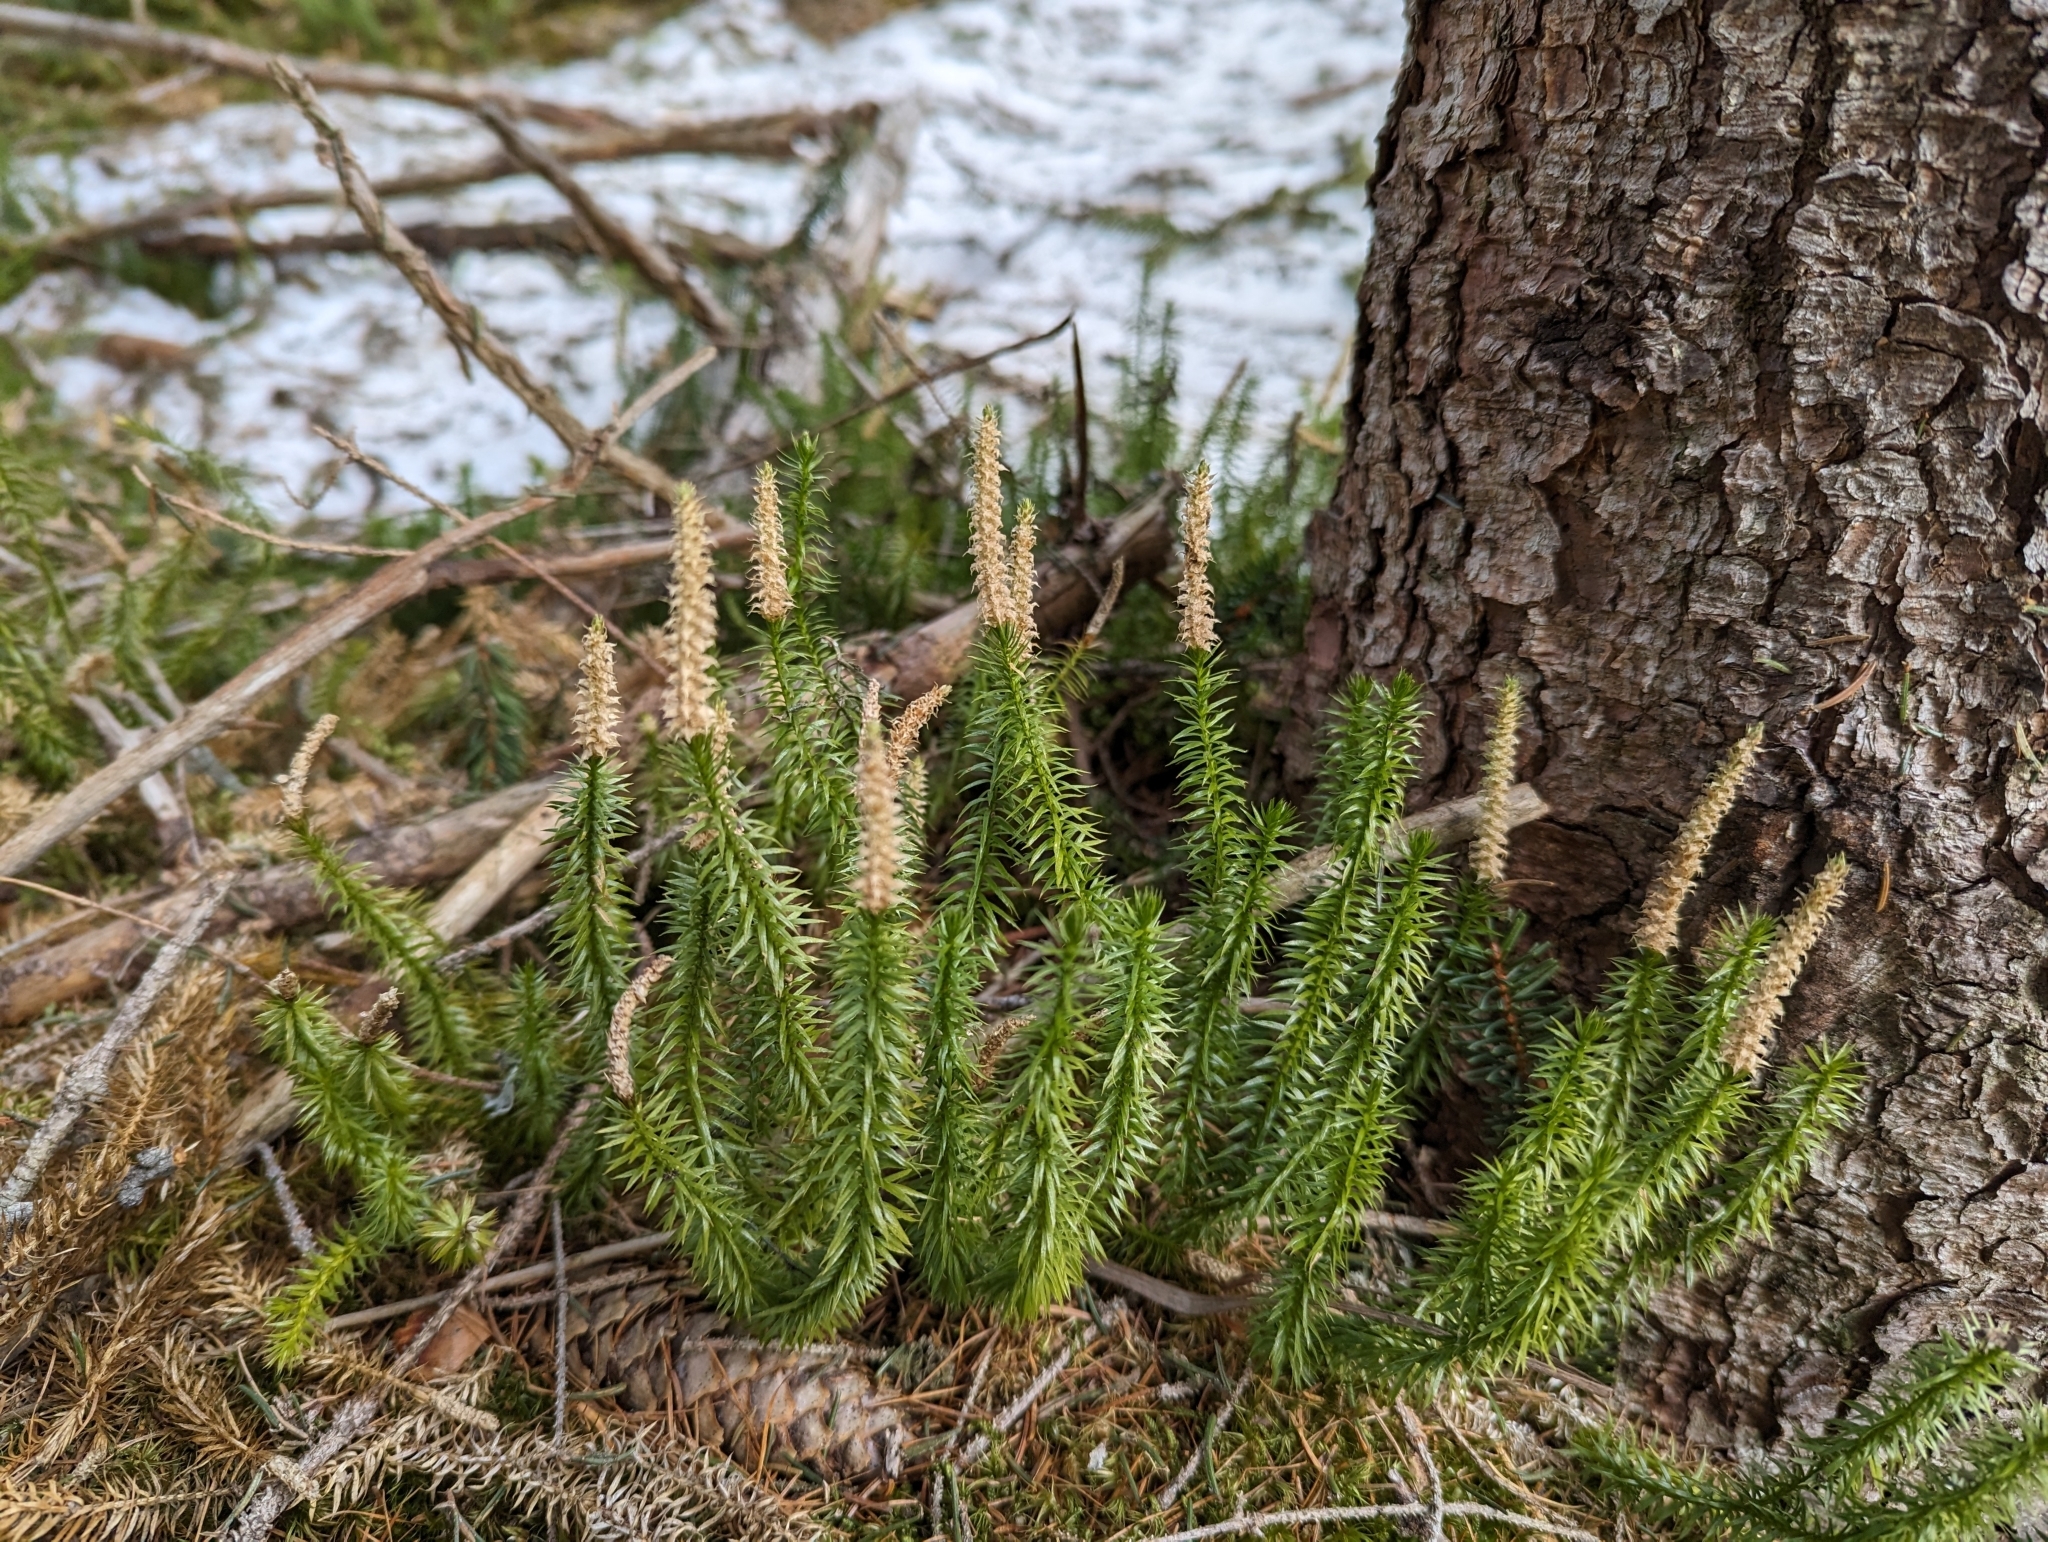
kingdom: Plantae
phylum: Tracheophyta
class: Lycopodiopsida
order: Lycopodiales
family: Lycopodiaceae
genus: Spinulum
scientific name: Spinulum annotinum
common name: Interrupted club-moss
